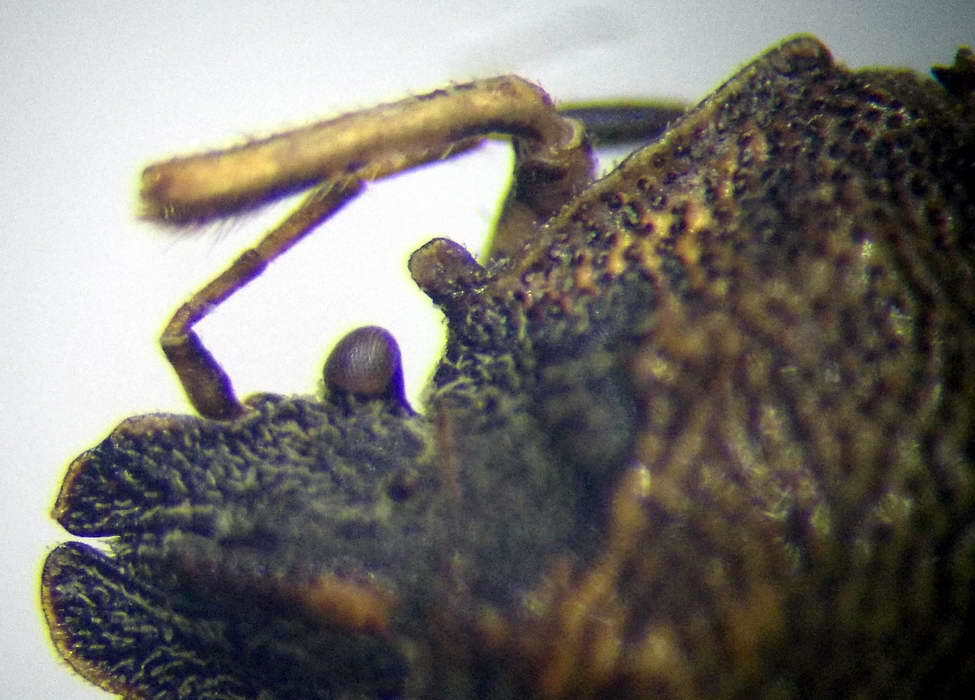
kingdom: Animalia
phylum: Arthropoda
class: Insecta
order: Hemiptera
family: Pentatomidae
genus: Podops
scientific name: Podops rectidens
